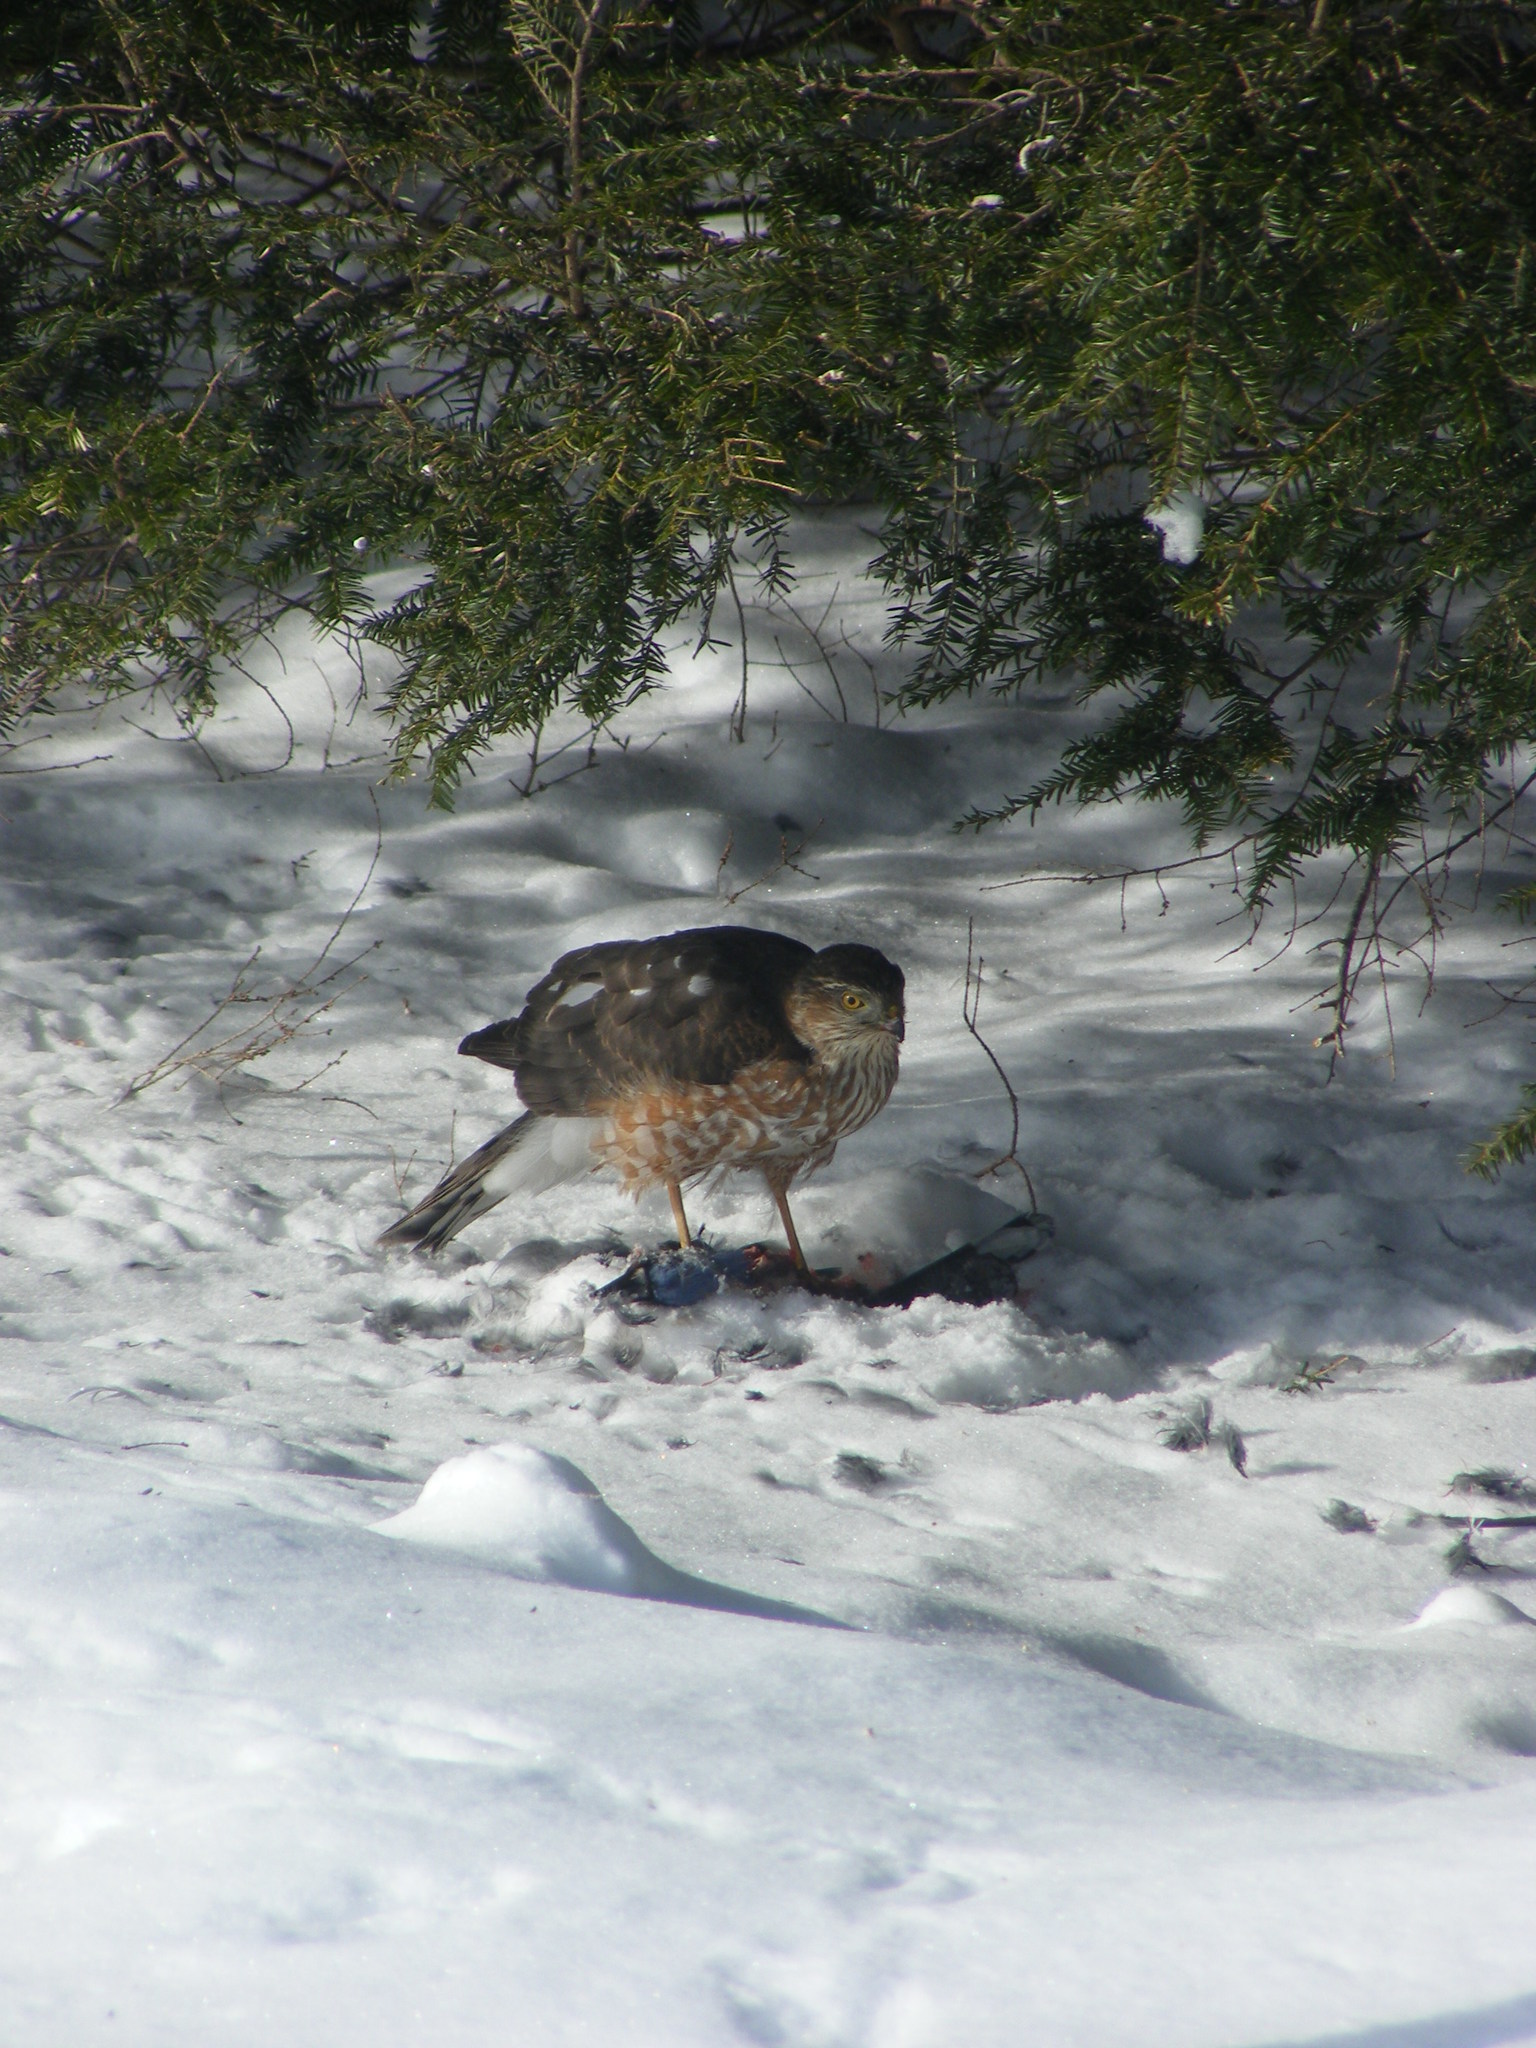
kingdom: Animalia
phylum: Chordata
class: Aves
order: Accipitriformes
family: Accipitridae
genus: Accipiter
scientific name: Accipiter striatus
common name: Sharp-shinned hawk
